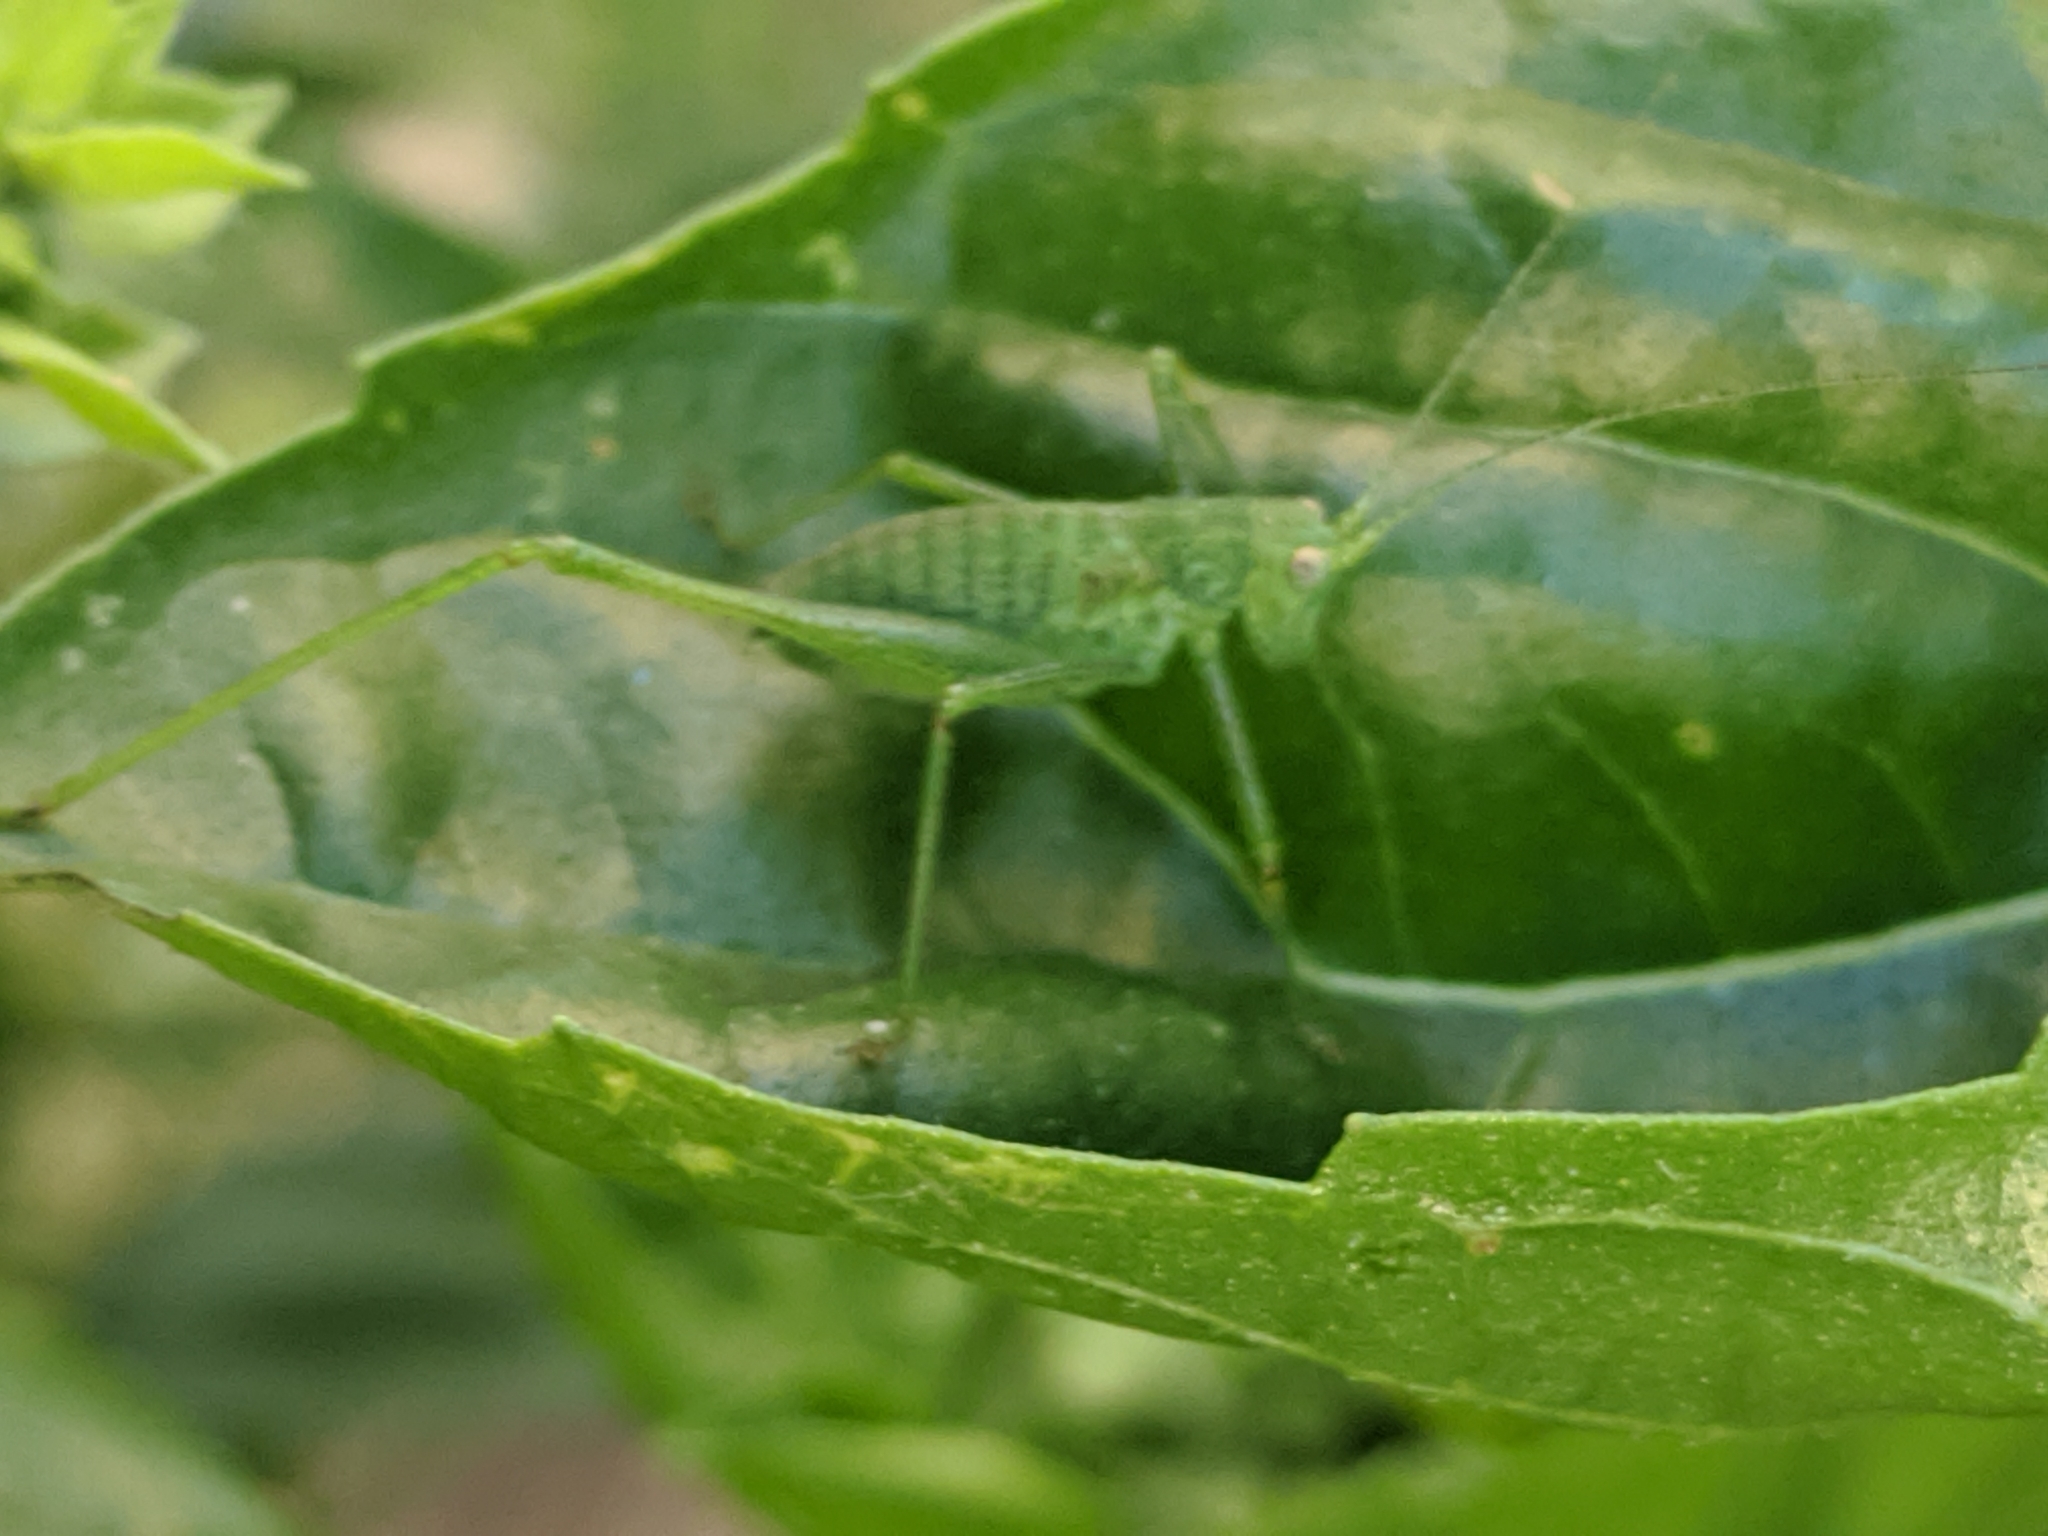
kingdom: Animalia
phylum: Arthropoda
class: Insecta
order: Orthoptera
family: Tettigoniidae
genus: Phaneroptera
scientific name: Phaneroptera nana
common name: Southern sickle bush-cricket
